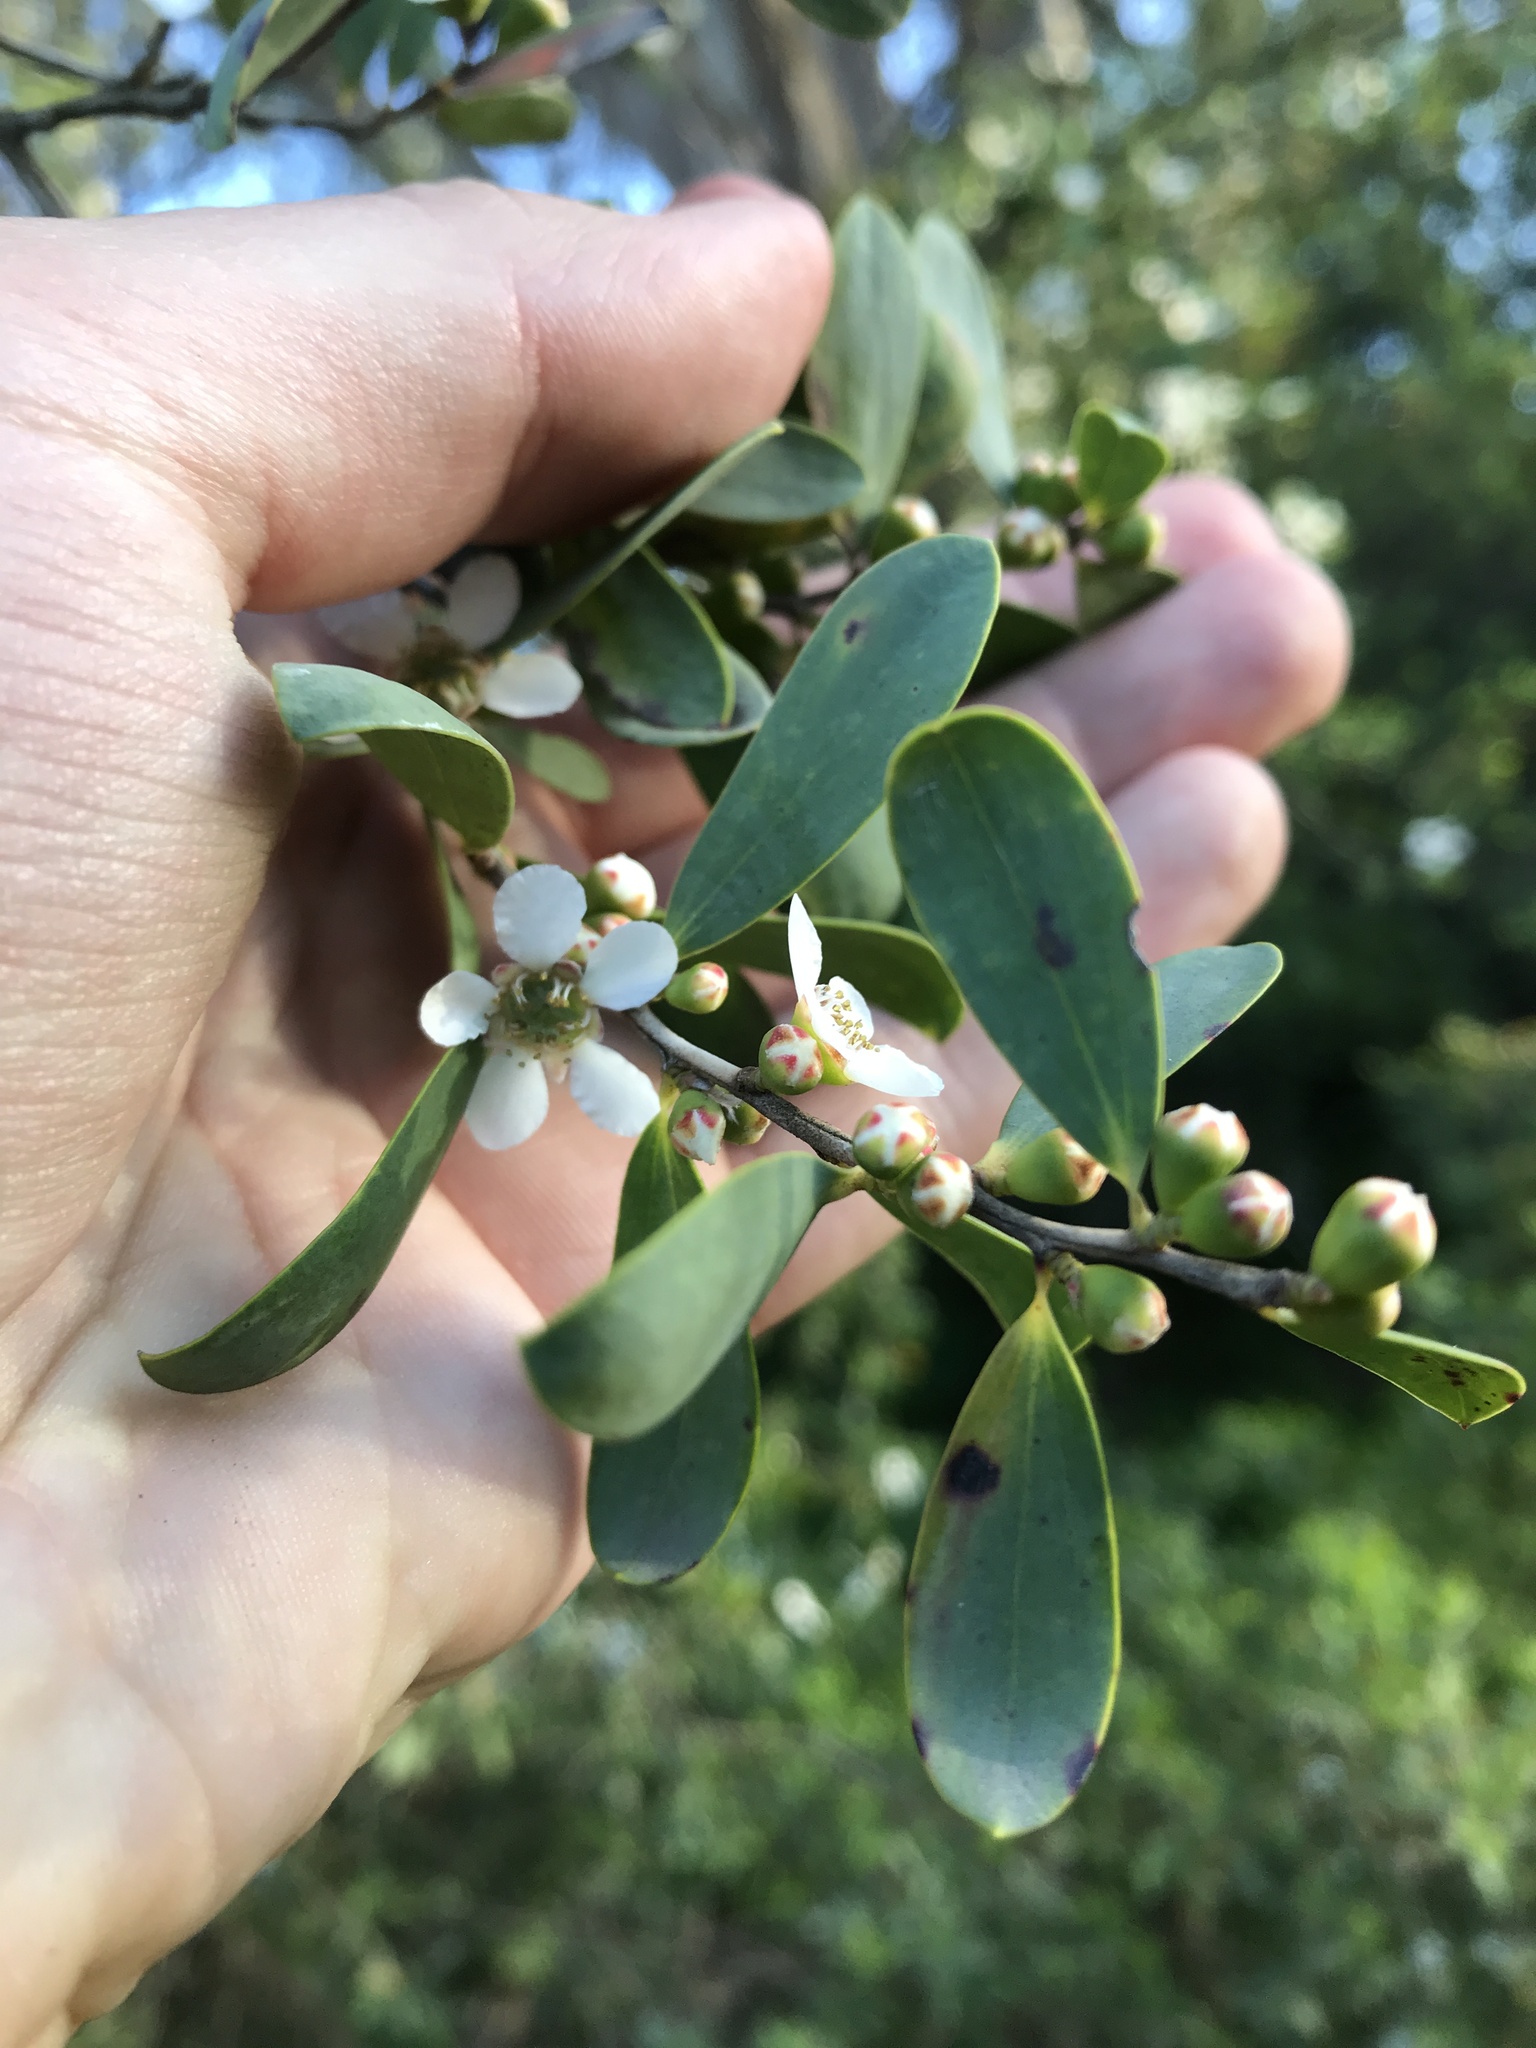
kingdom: Plantae
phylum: Tracheophyta
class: Magnoliopsida
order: Myrtales
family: Myrtaceae
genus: Leptospermum
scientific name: Leptospermum laevigatum
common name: Australian teatree
